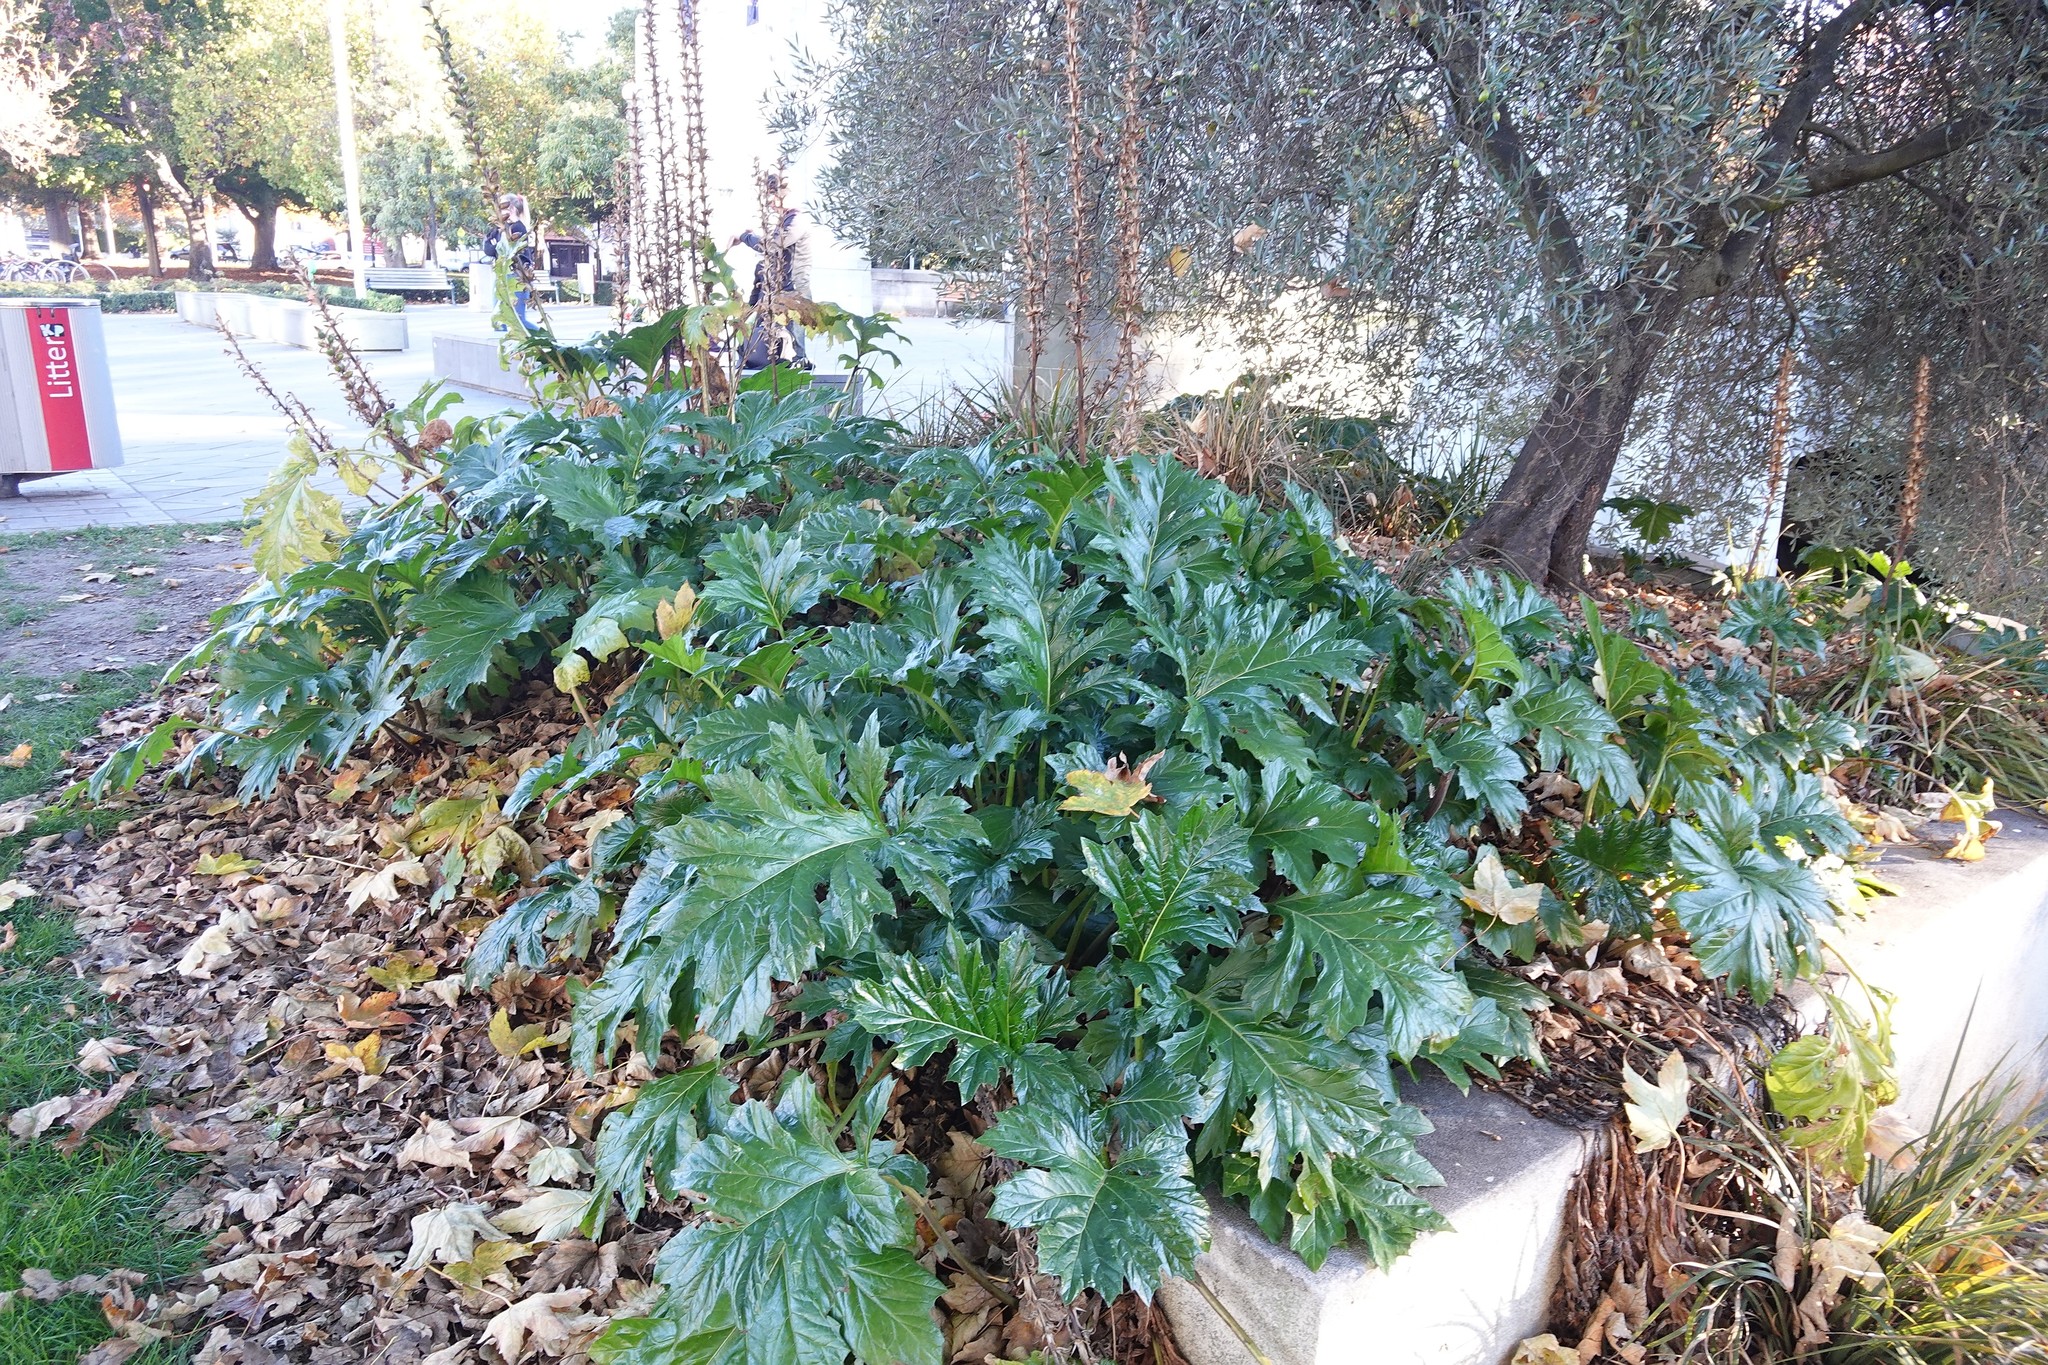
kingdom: Plantae
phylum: Tracheophyta
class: Magnoliopsida
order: Lamiales
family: Acanthaceae
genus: Acanthus
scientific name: Acanthus mollis
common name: Bear's-breech
